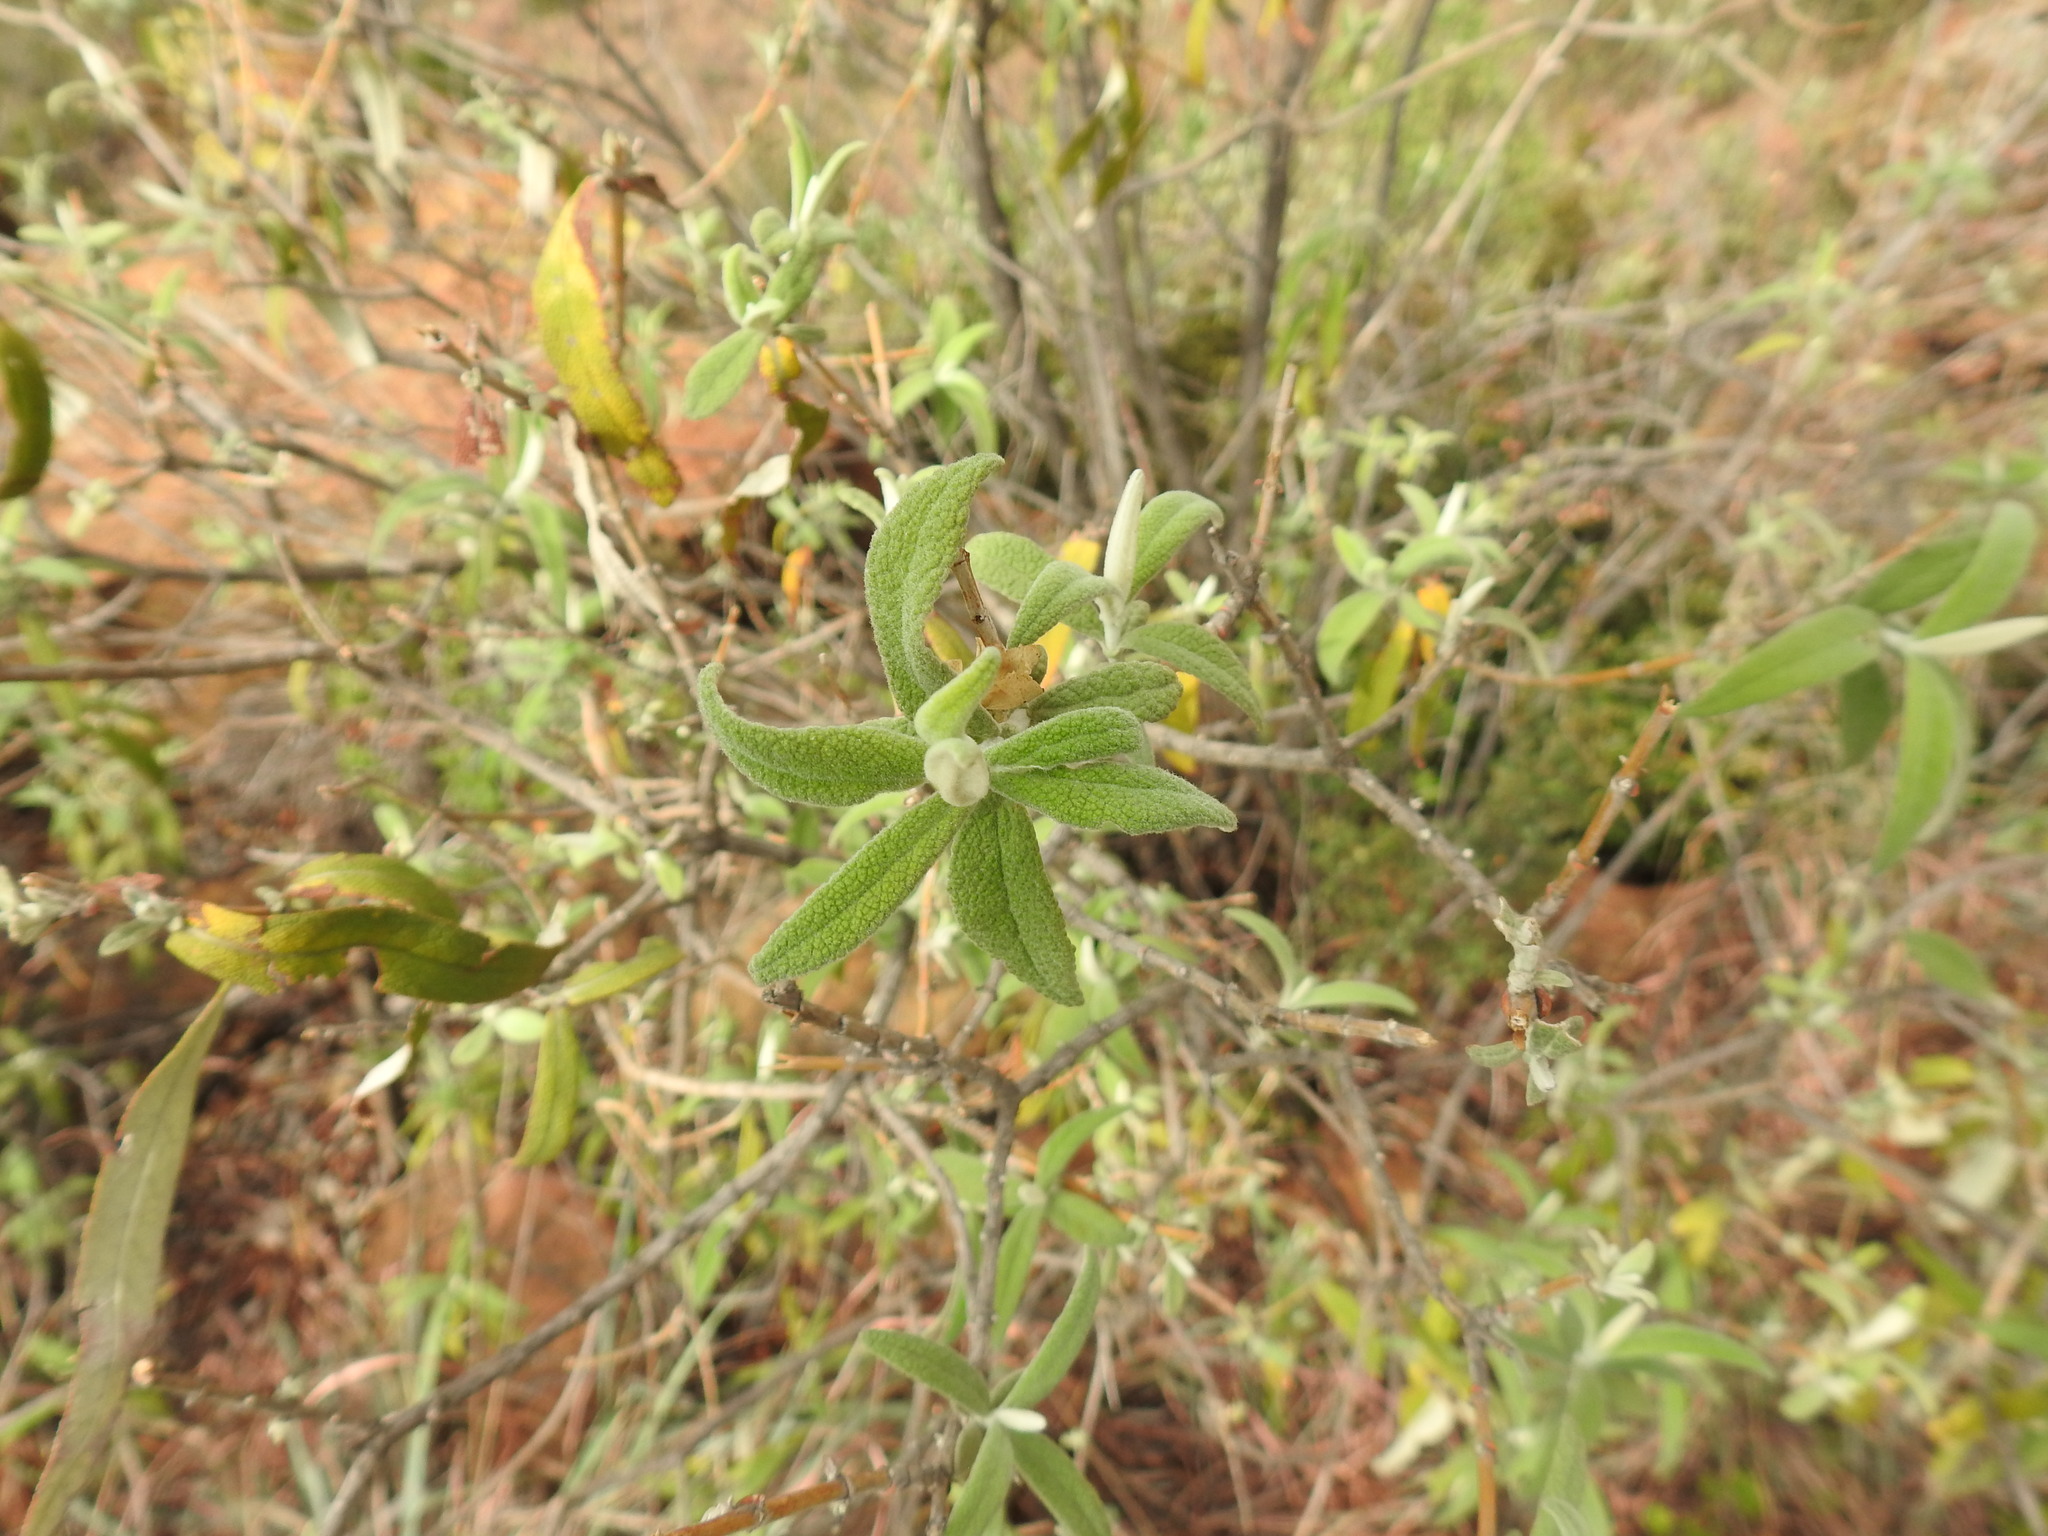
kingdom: Plantae
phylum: Tracheophyta
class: Magnoliopsida
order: Lamiales
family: Scrophulariaceae
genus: Buddleja
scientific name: Buddleja salviifolia
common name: Sagewood
